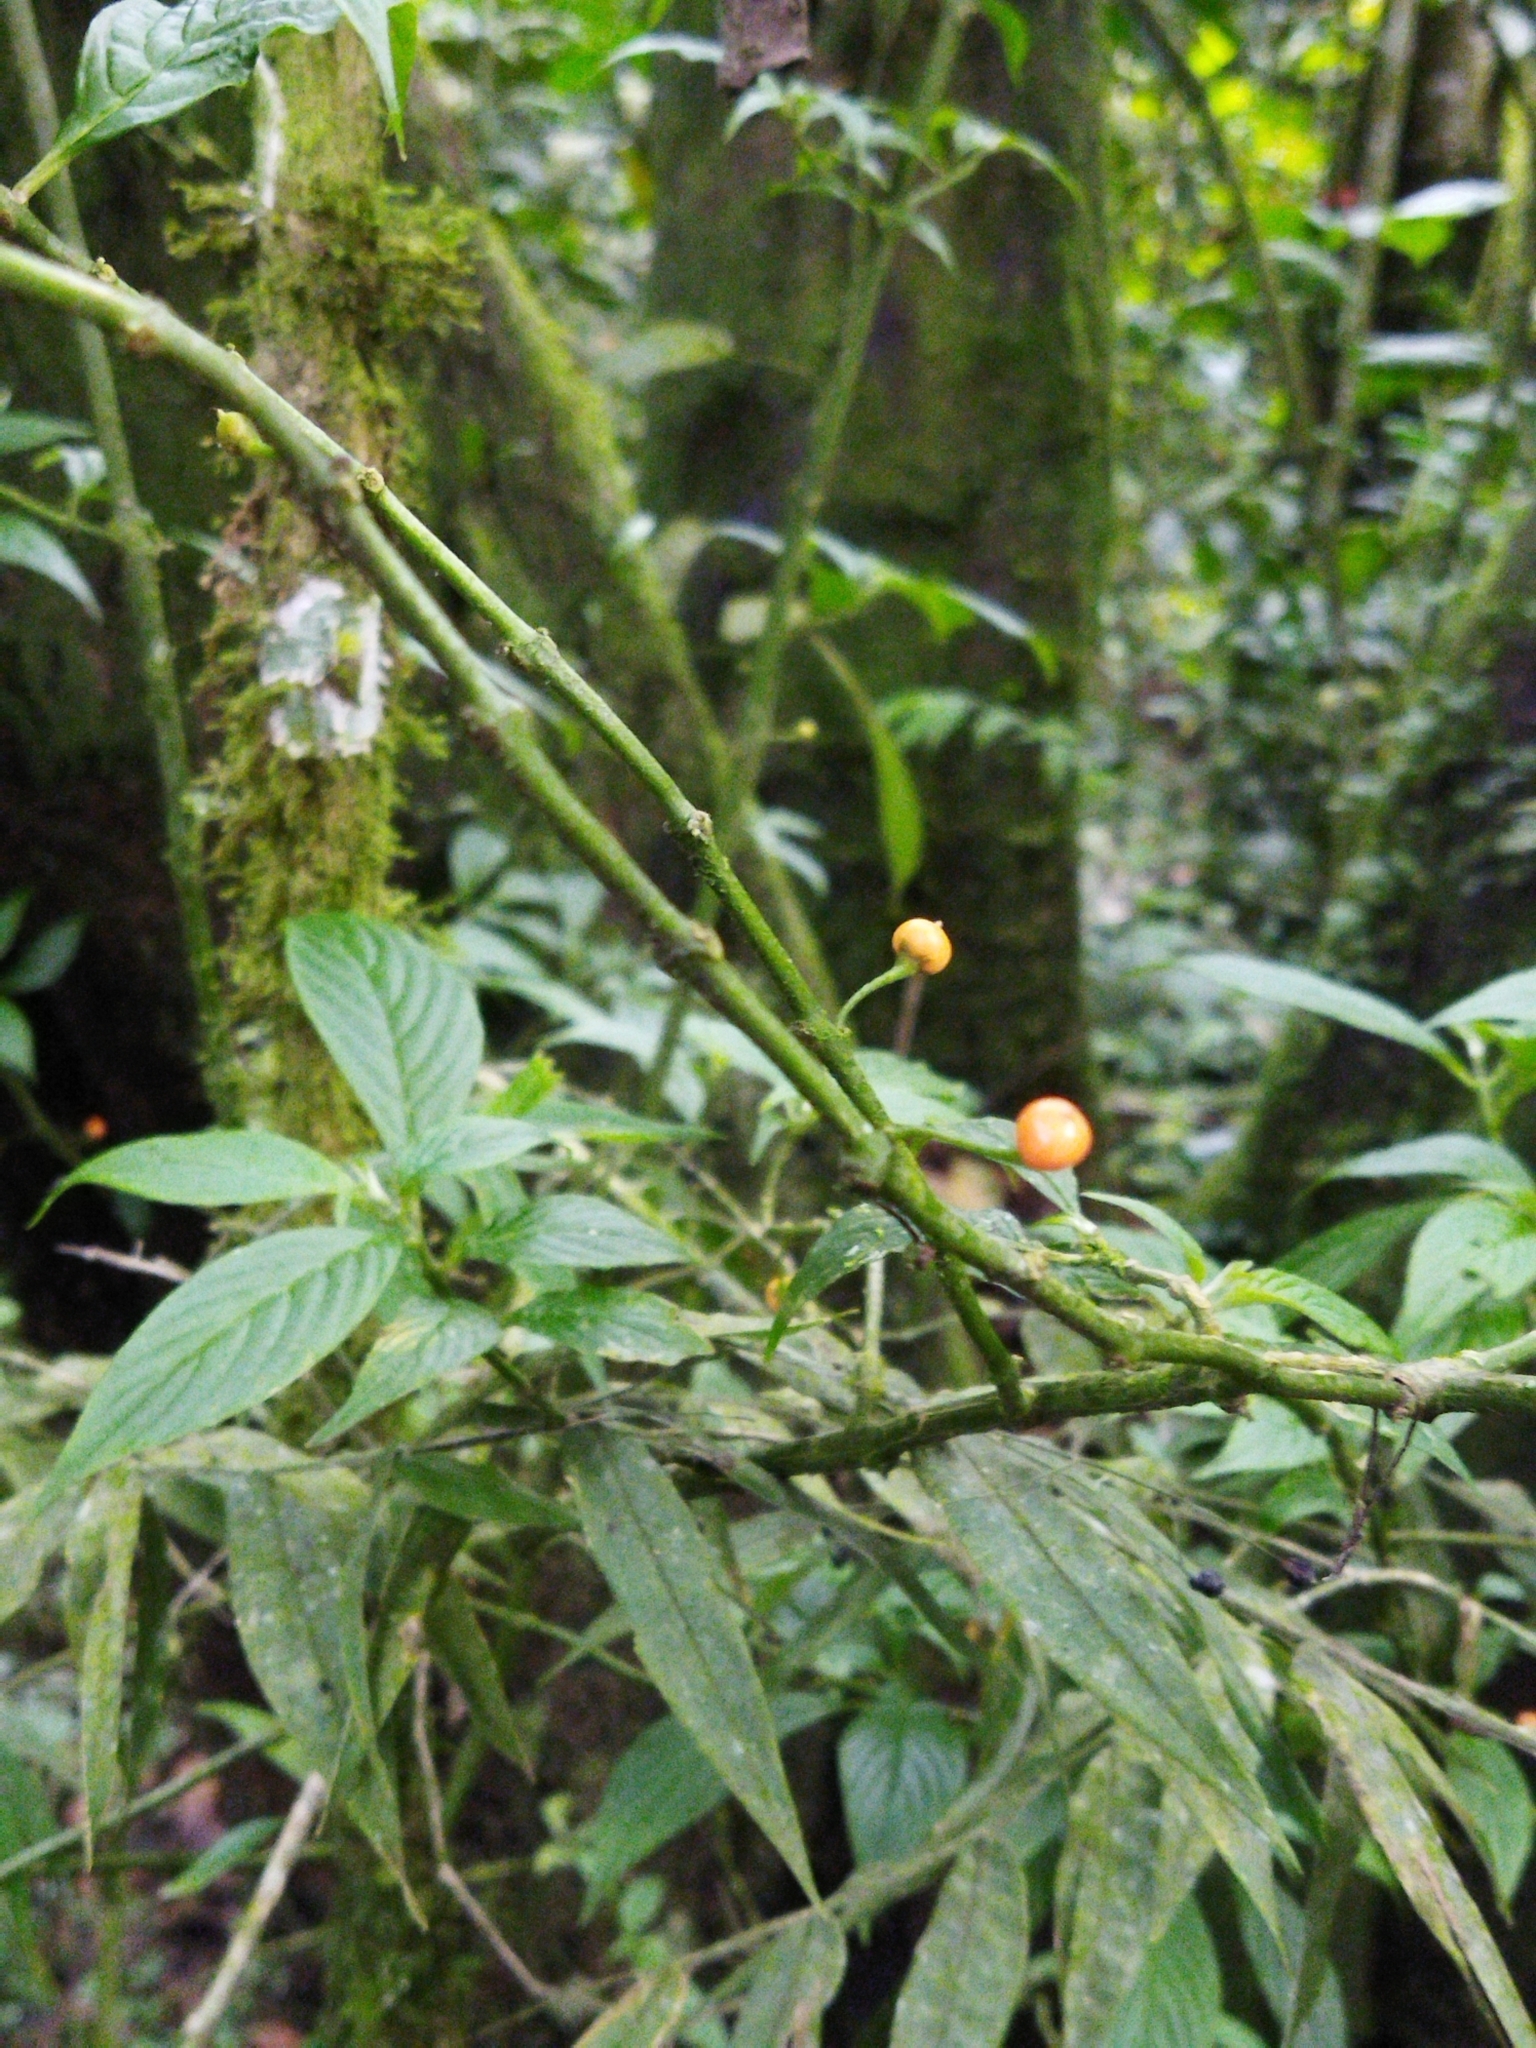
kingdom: Plantae
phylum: Tracheophyta
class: Magnoliopsida
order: Lamiales
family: Gesneriaceae
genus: Besleria
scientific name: Besleria solanoides
